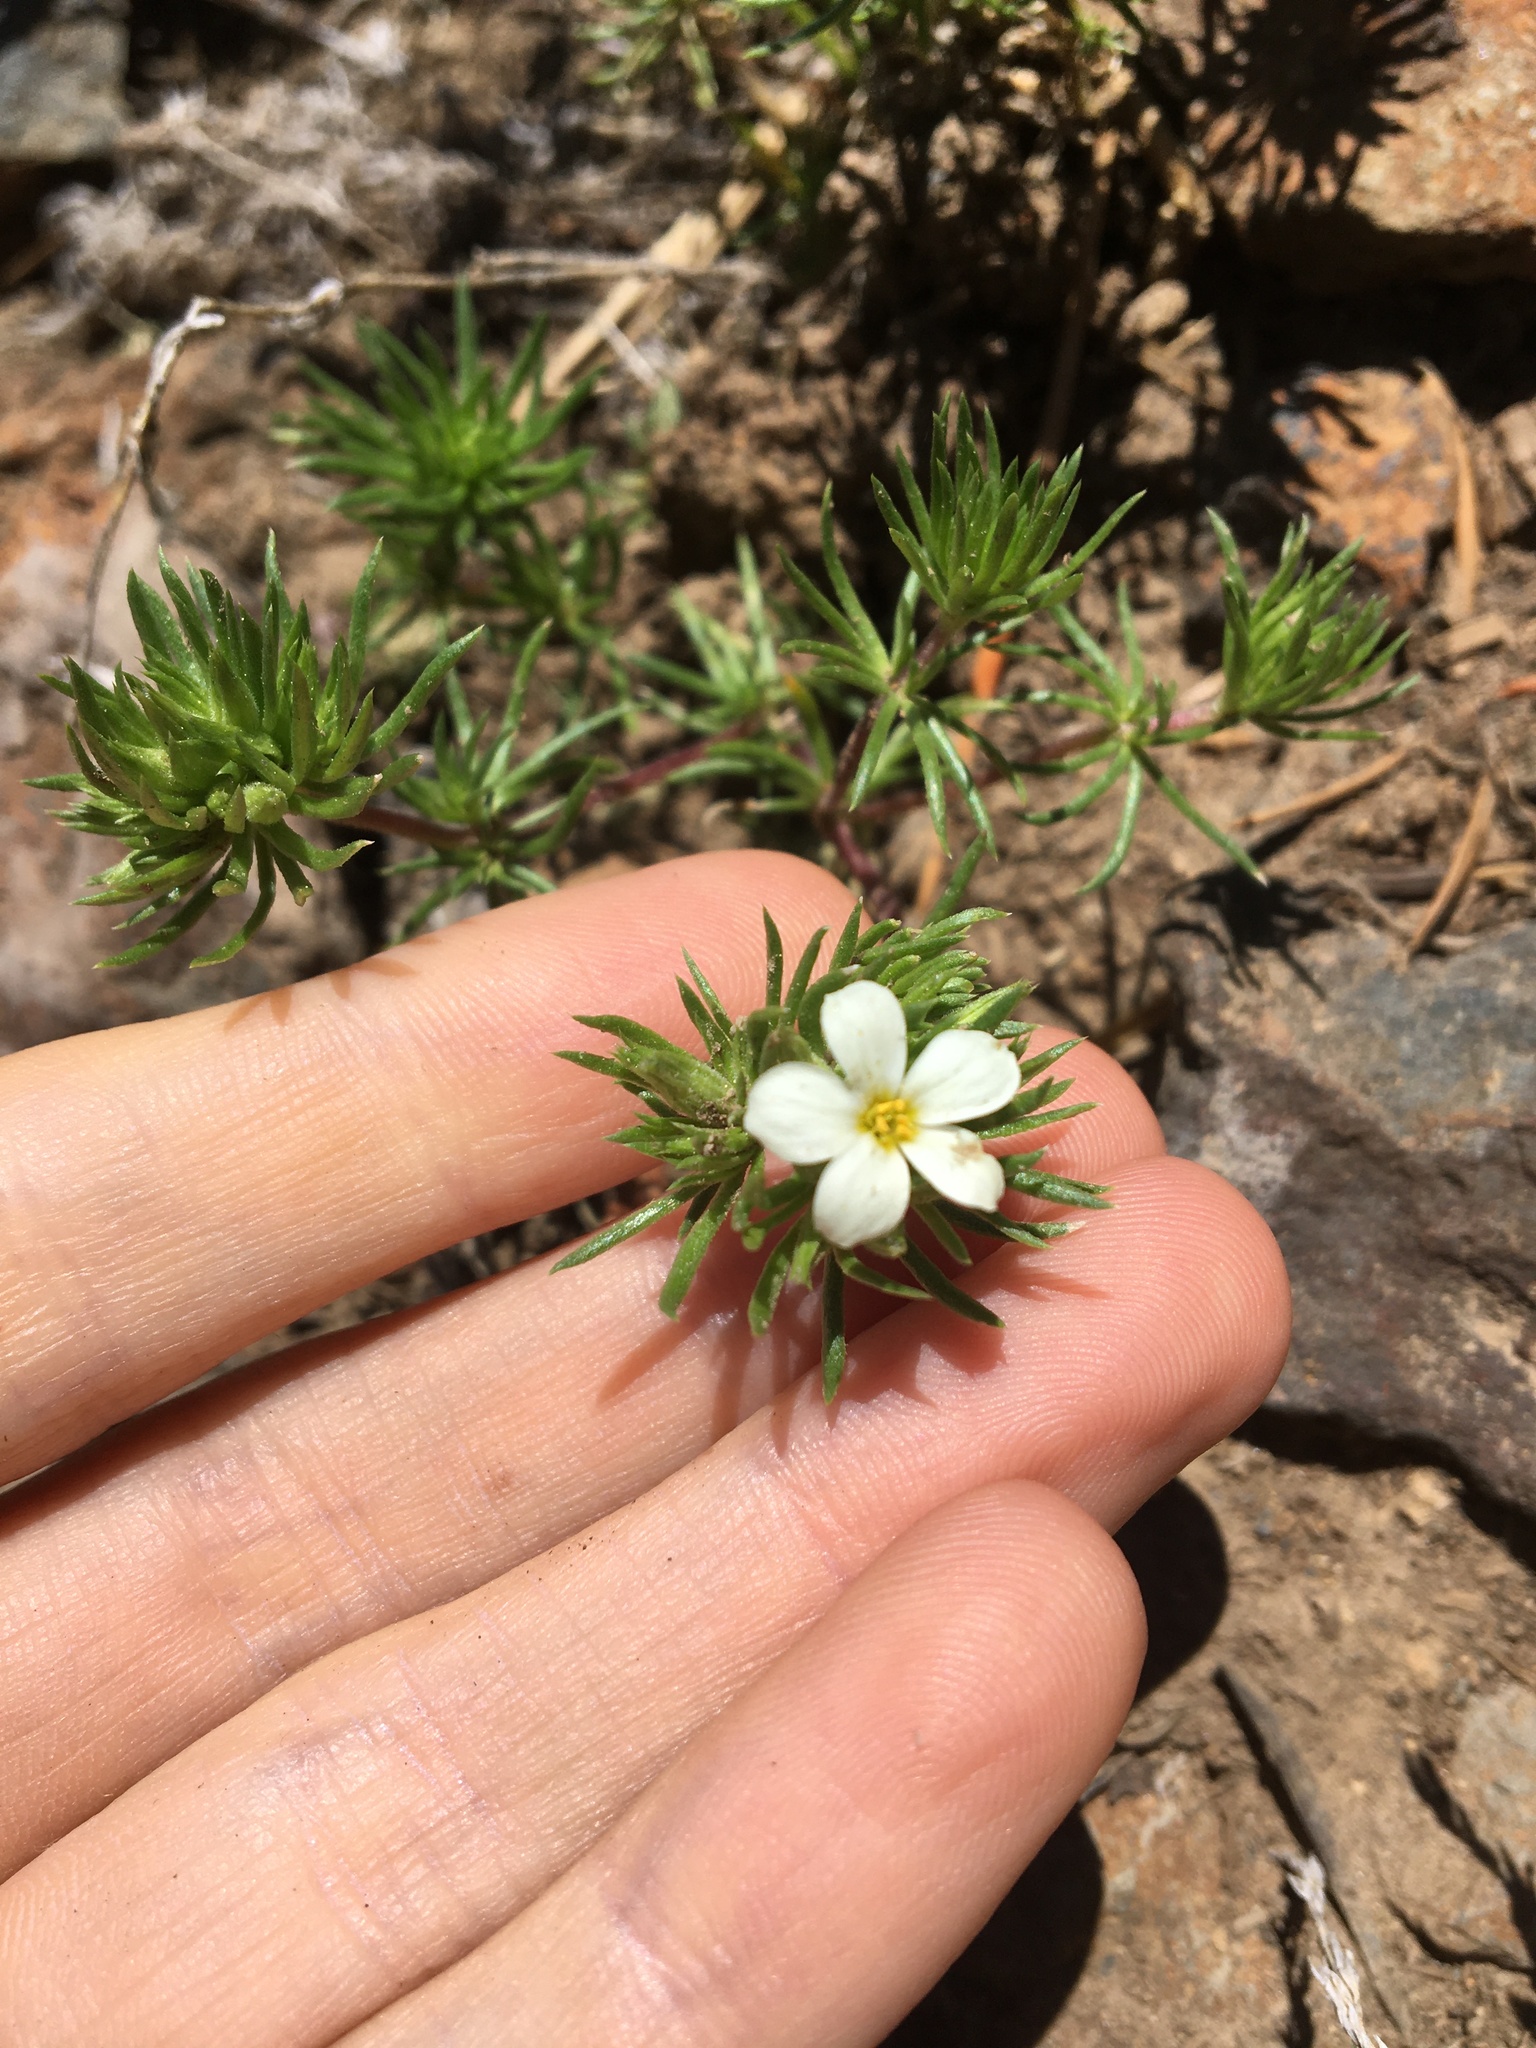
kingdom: Plantae
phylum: Tracheophyta
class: Magnoliopsida
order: Ericales
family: Polemoniaceae
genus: Leptosiphon
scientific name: Leptosiphon nuttallii
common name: Nuttall's linanthus
